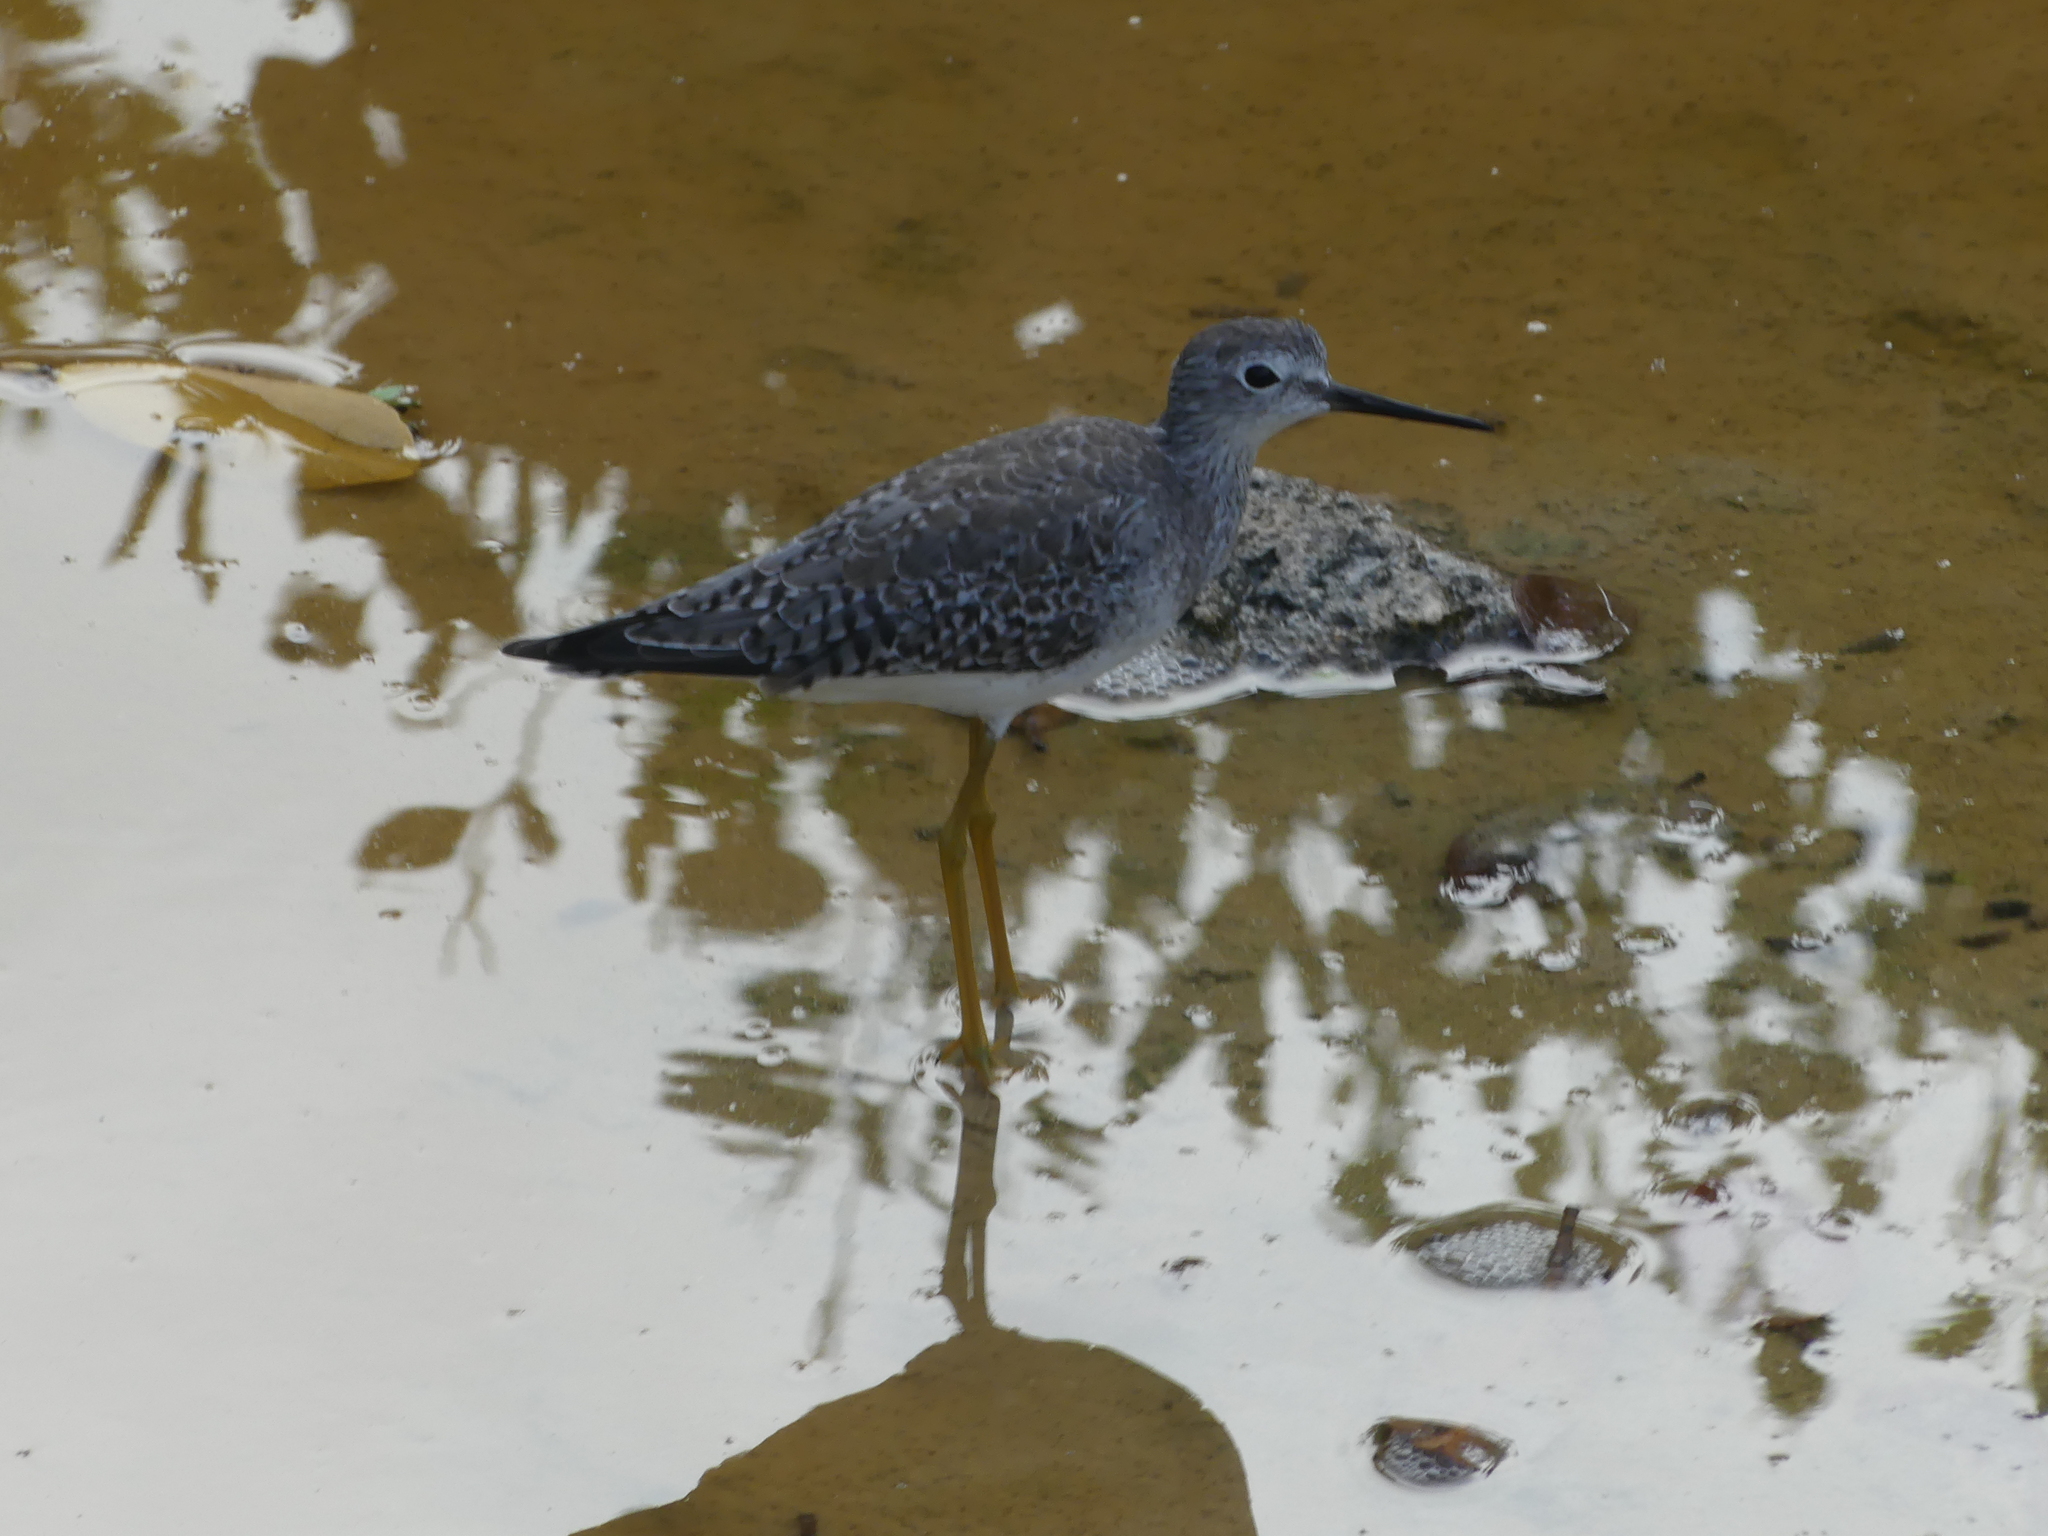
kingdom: Animalia
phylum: Chordata
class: Aves
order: Charadriiformes
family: Scolopacidae
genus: Tringa
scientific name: Tringa flavipes
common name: Lesser yellowlegs
